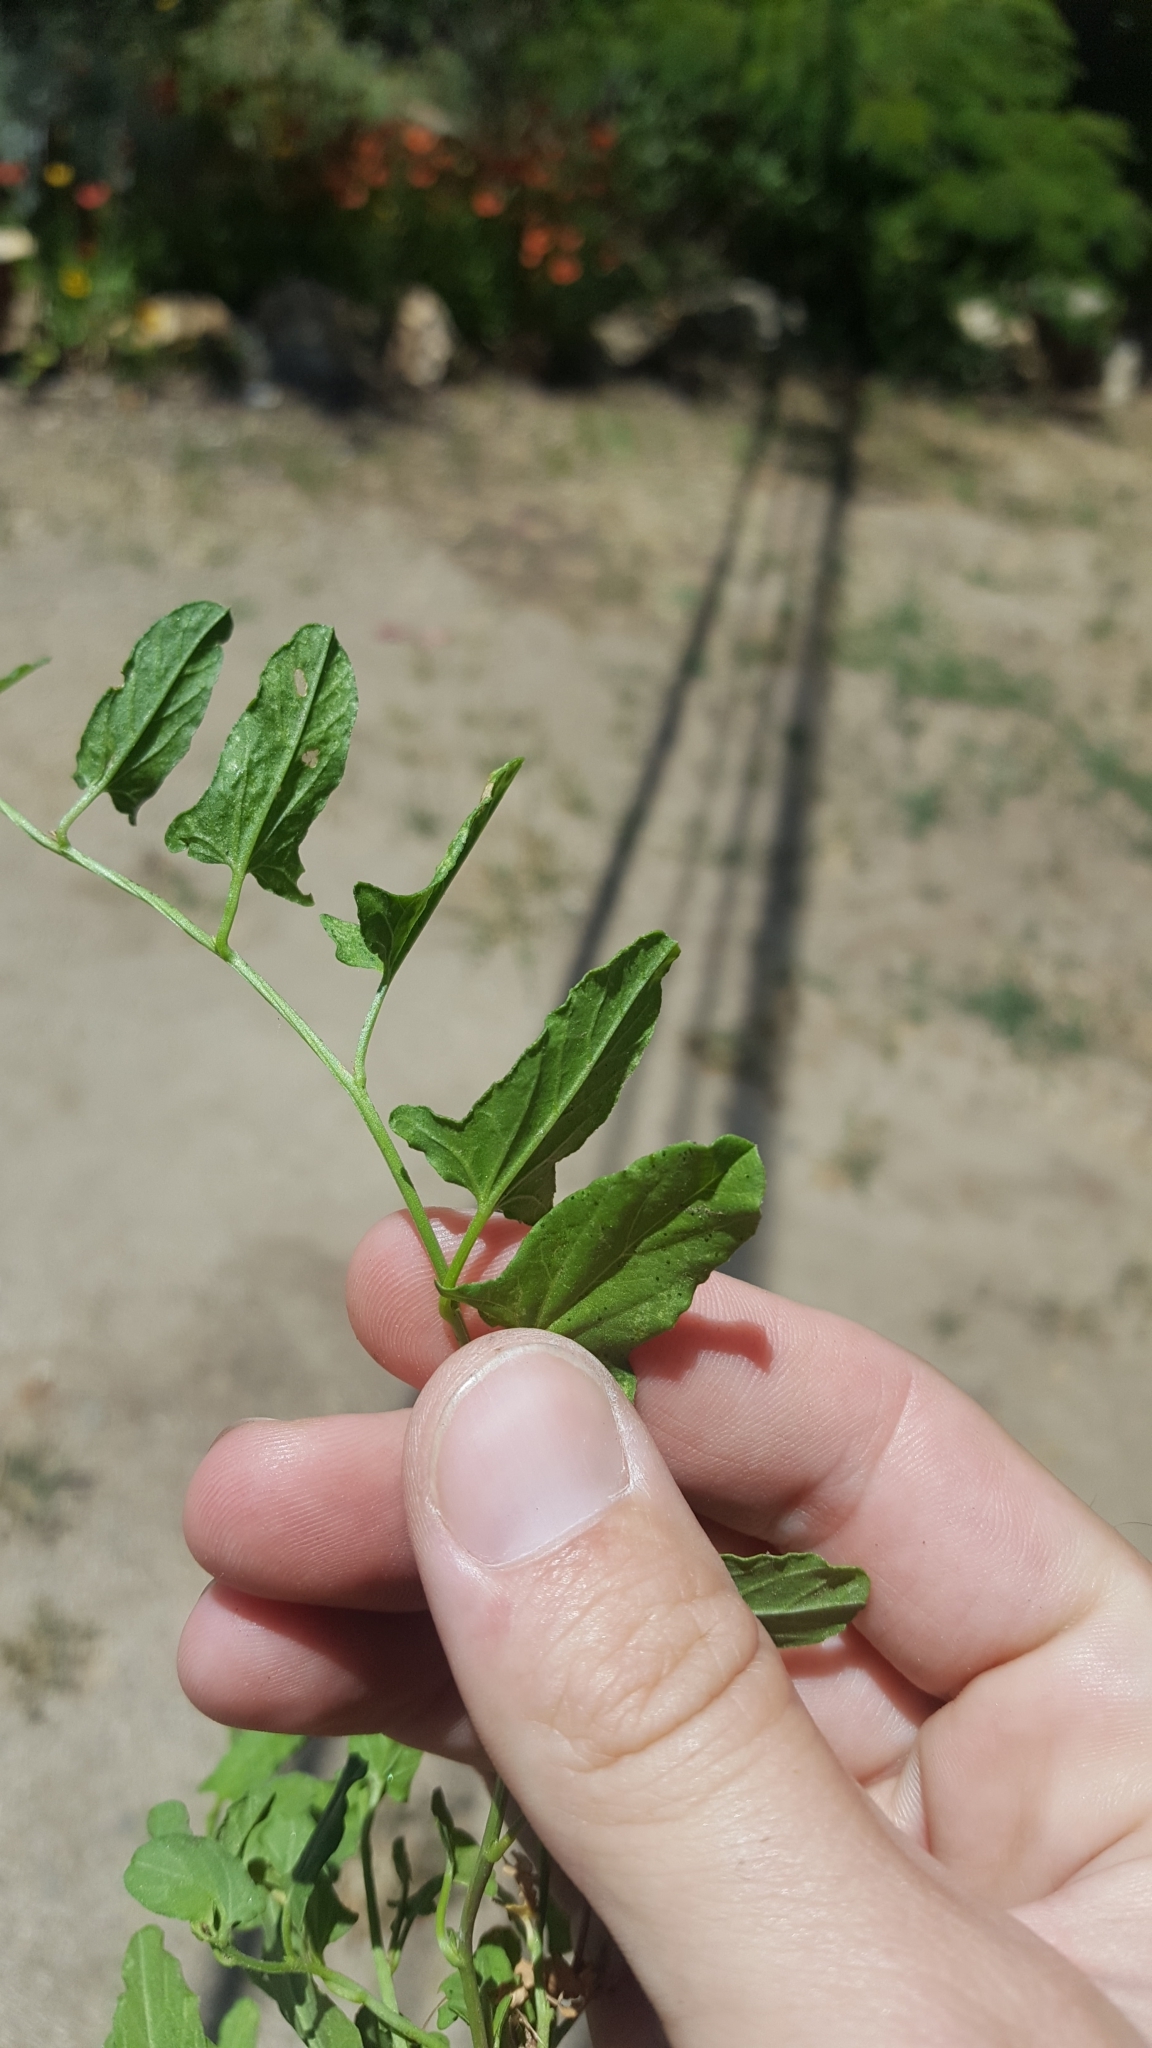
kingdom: Plantae
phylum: Tracheophyta
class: Magnoliopsida
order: Solanales
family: Convolvulaceae
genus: Convolvulus
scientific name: Convolvulus arvensis
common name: Field bindweed
